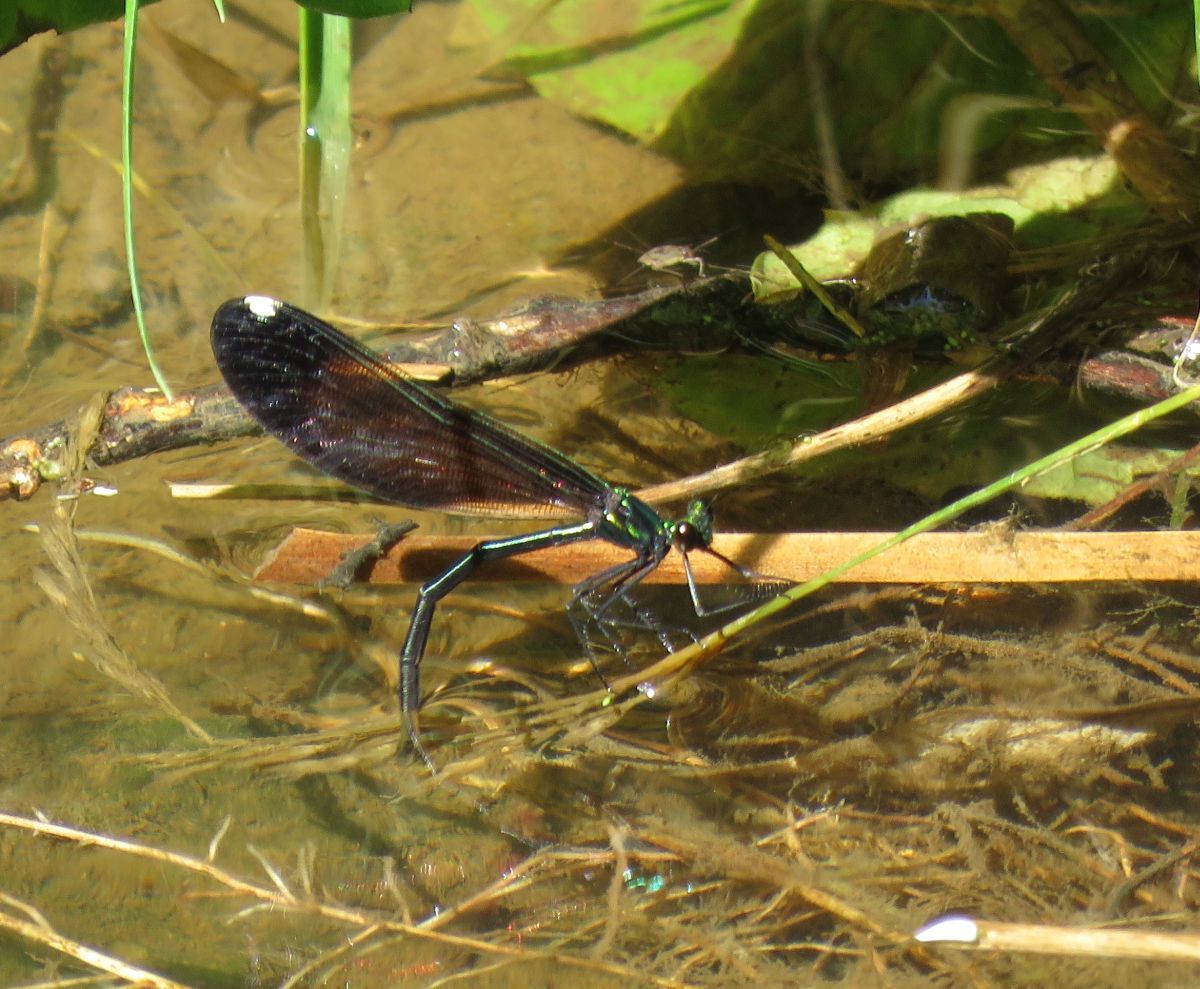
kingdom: Animalia
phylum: Arthropoda
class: Insecta
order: Odonata
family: Calopterygidae
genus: Calopteryx
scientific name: Calopteryx maculata
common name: Ebony jewelwing
